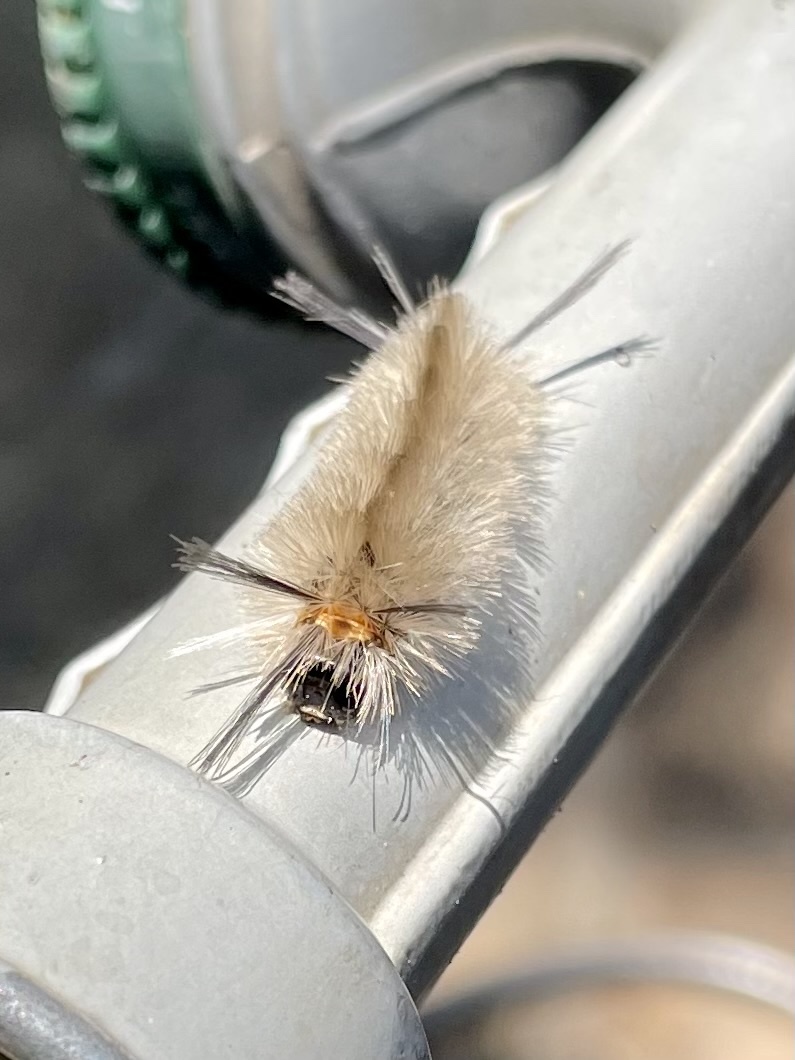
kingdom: Animalia
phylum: Arthropoda
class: Insecta
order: Lepidoptera
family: Erebidae
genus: Halysidota
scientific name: Halysidota tessellaris
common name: Banded tussock moth
